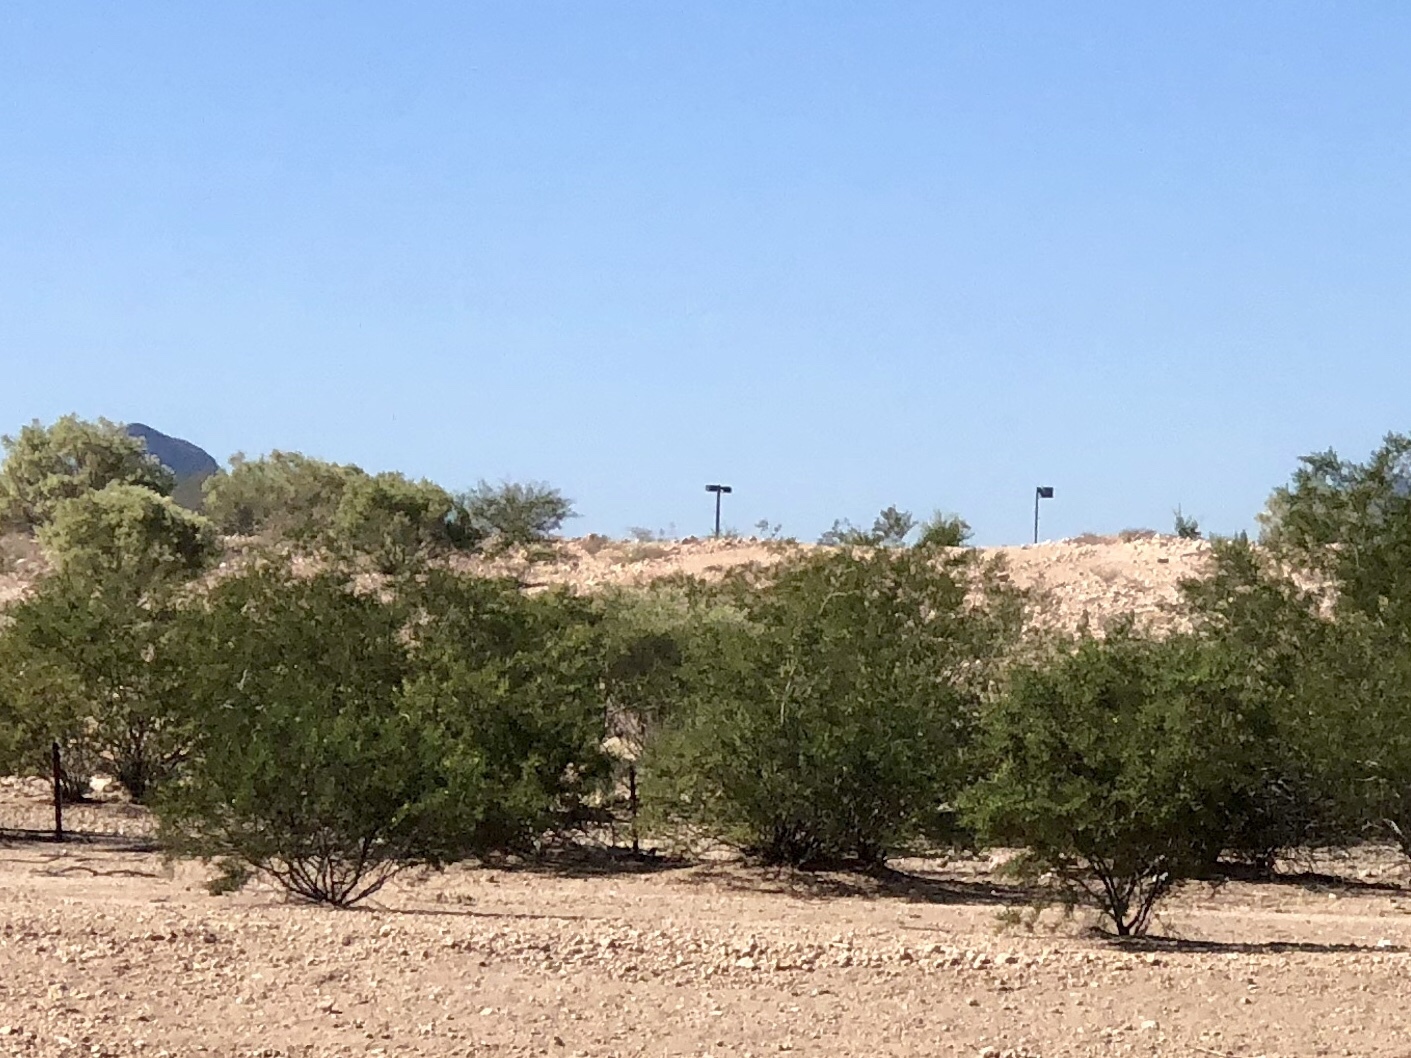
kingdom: Plantae
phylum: Tracheophyta
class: Magnoliopsida
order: Zygophyllales
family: Zygophyllaceae
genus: Larrea
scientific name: Larrea tridentata
